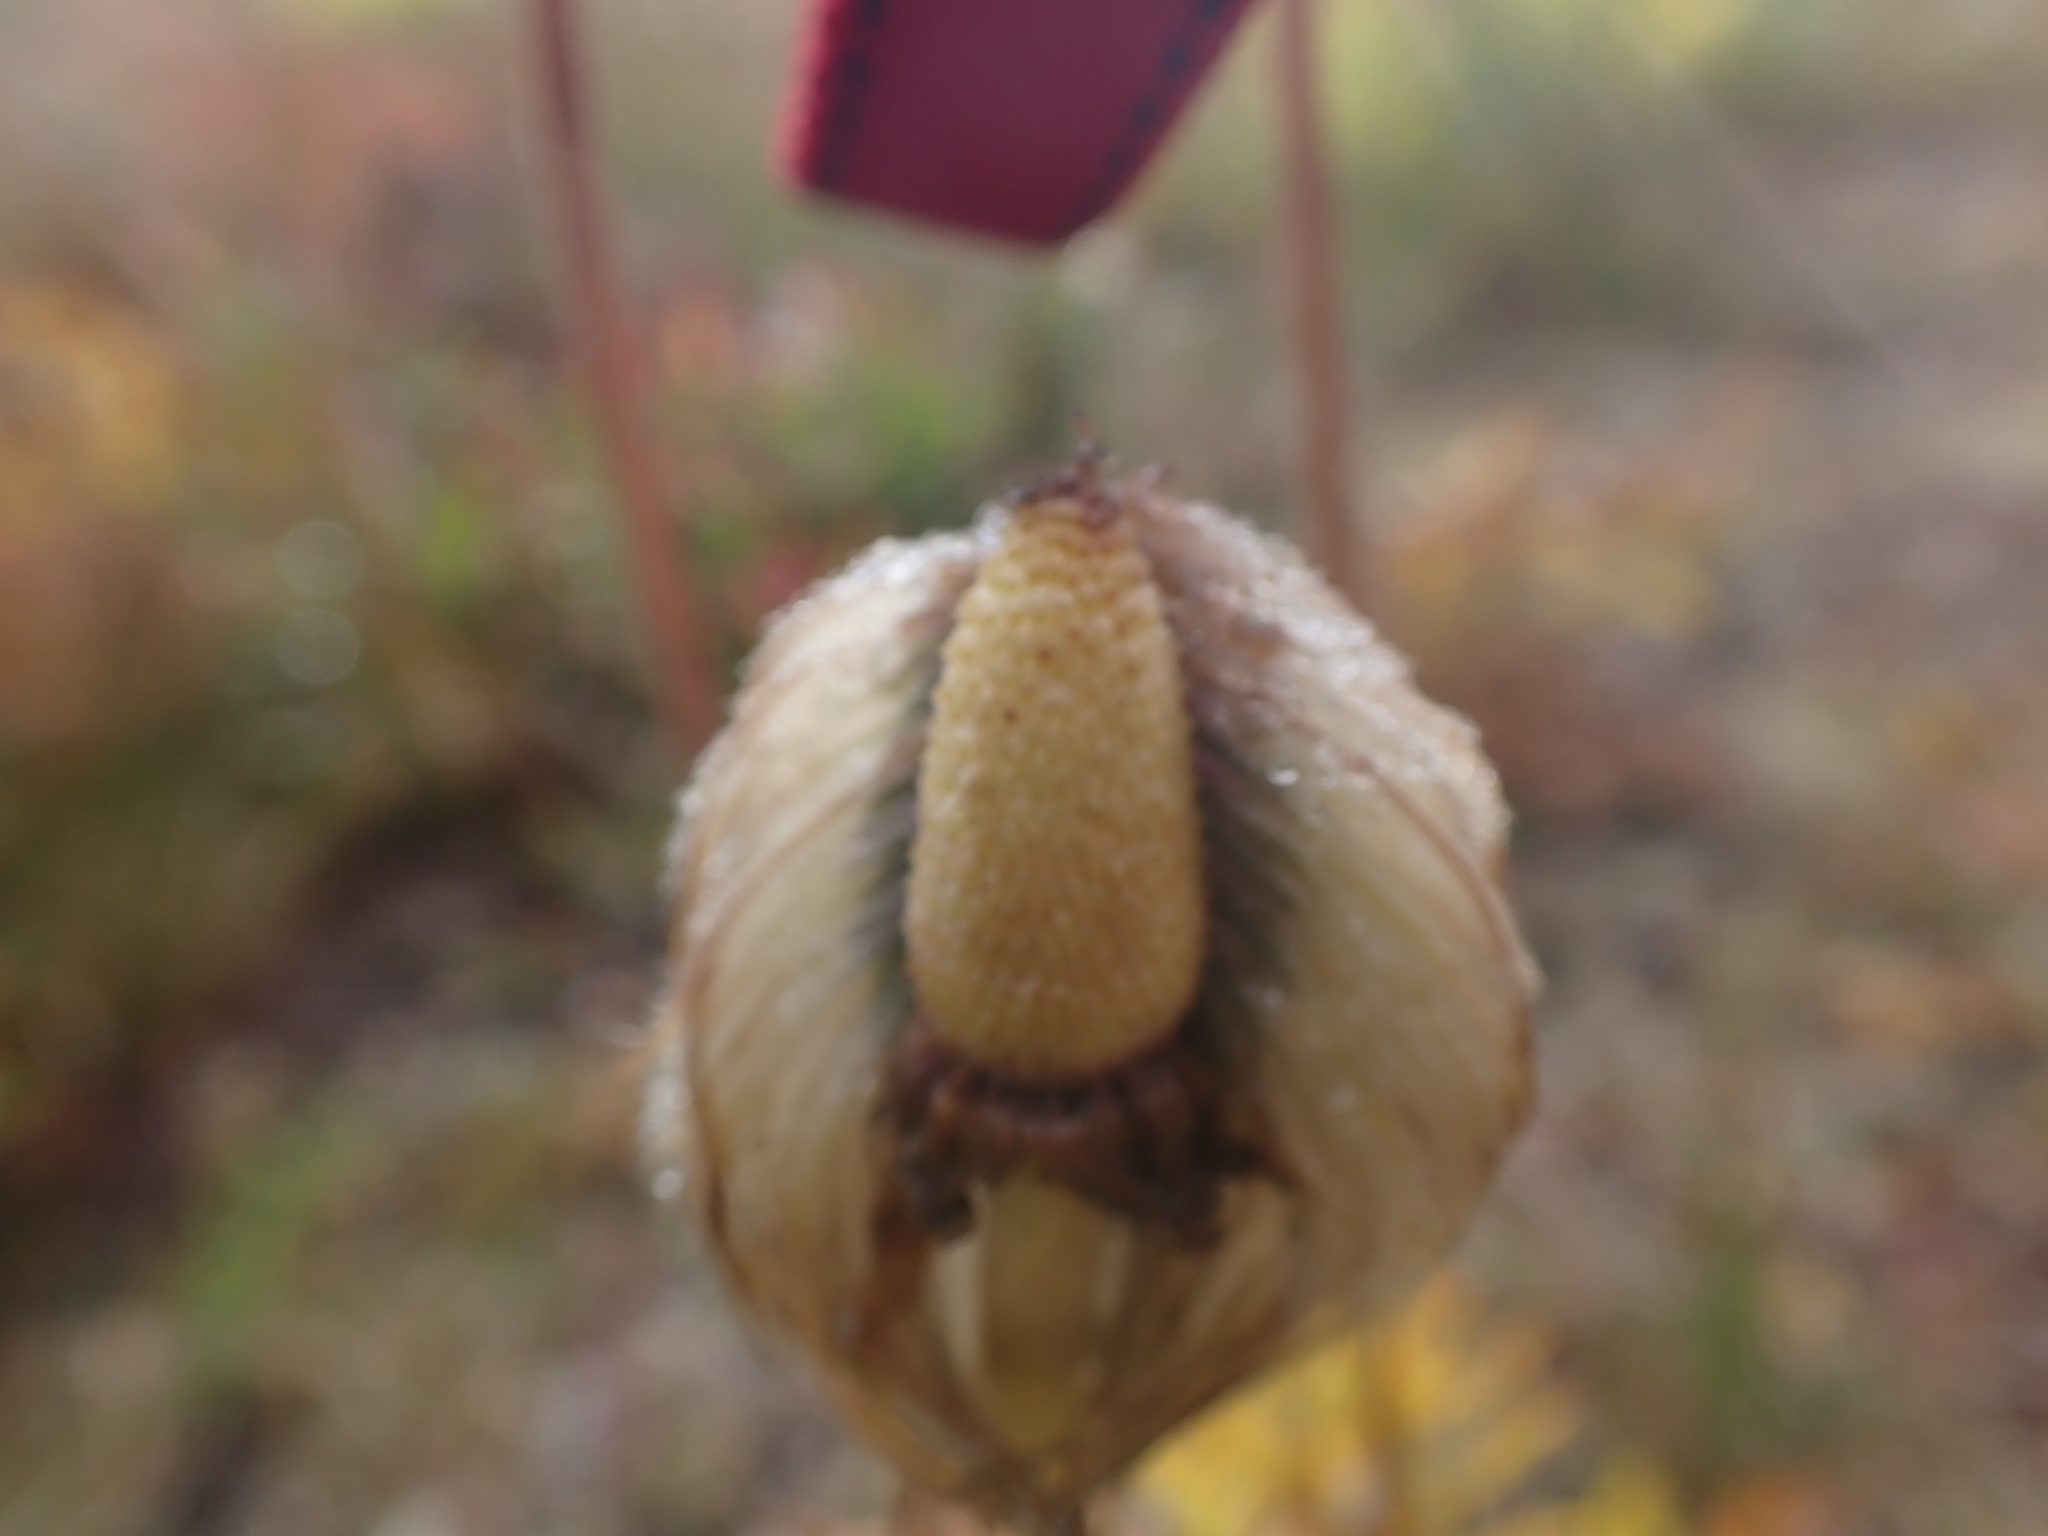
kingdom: Plantae
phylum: Tracheophyta
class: Magnoliopsida
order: Ranunculales
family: Ranunculaceae
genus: Pulsatilla
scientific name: Pulsatilla occidentalis
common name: Mountain pasqueflower
